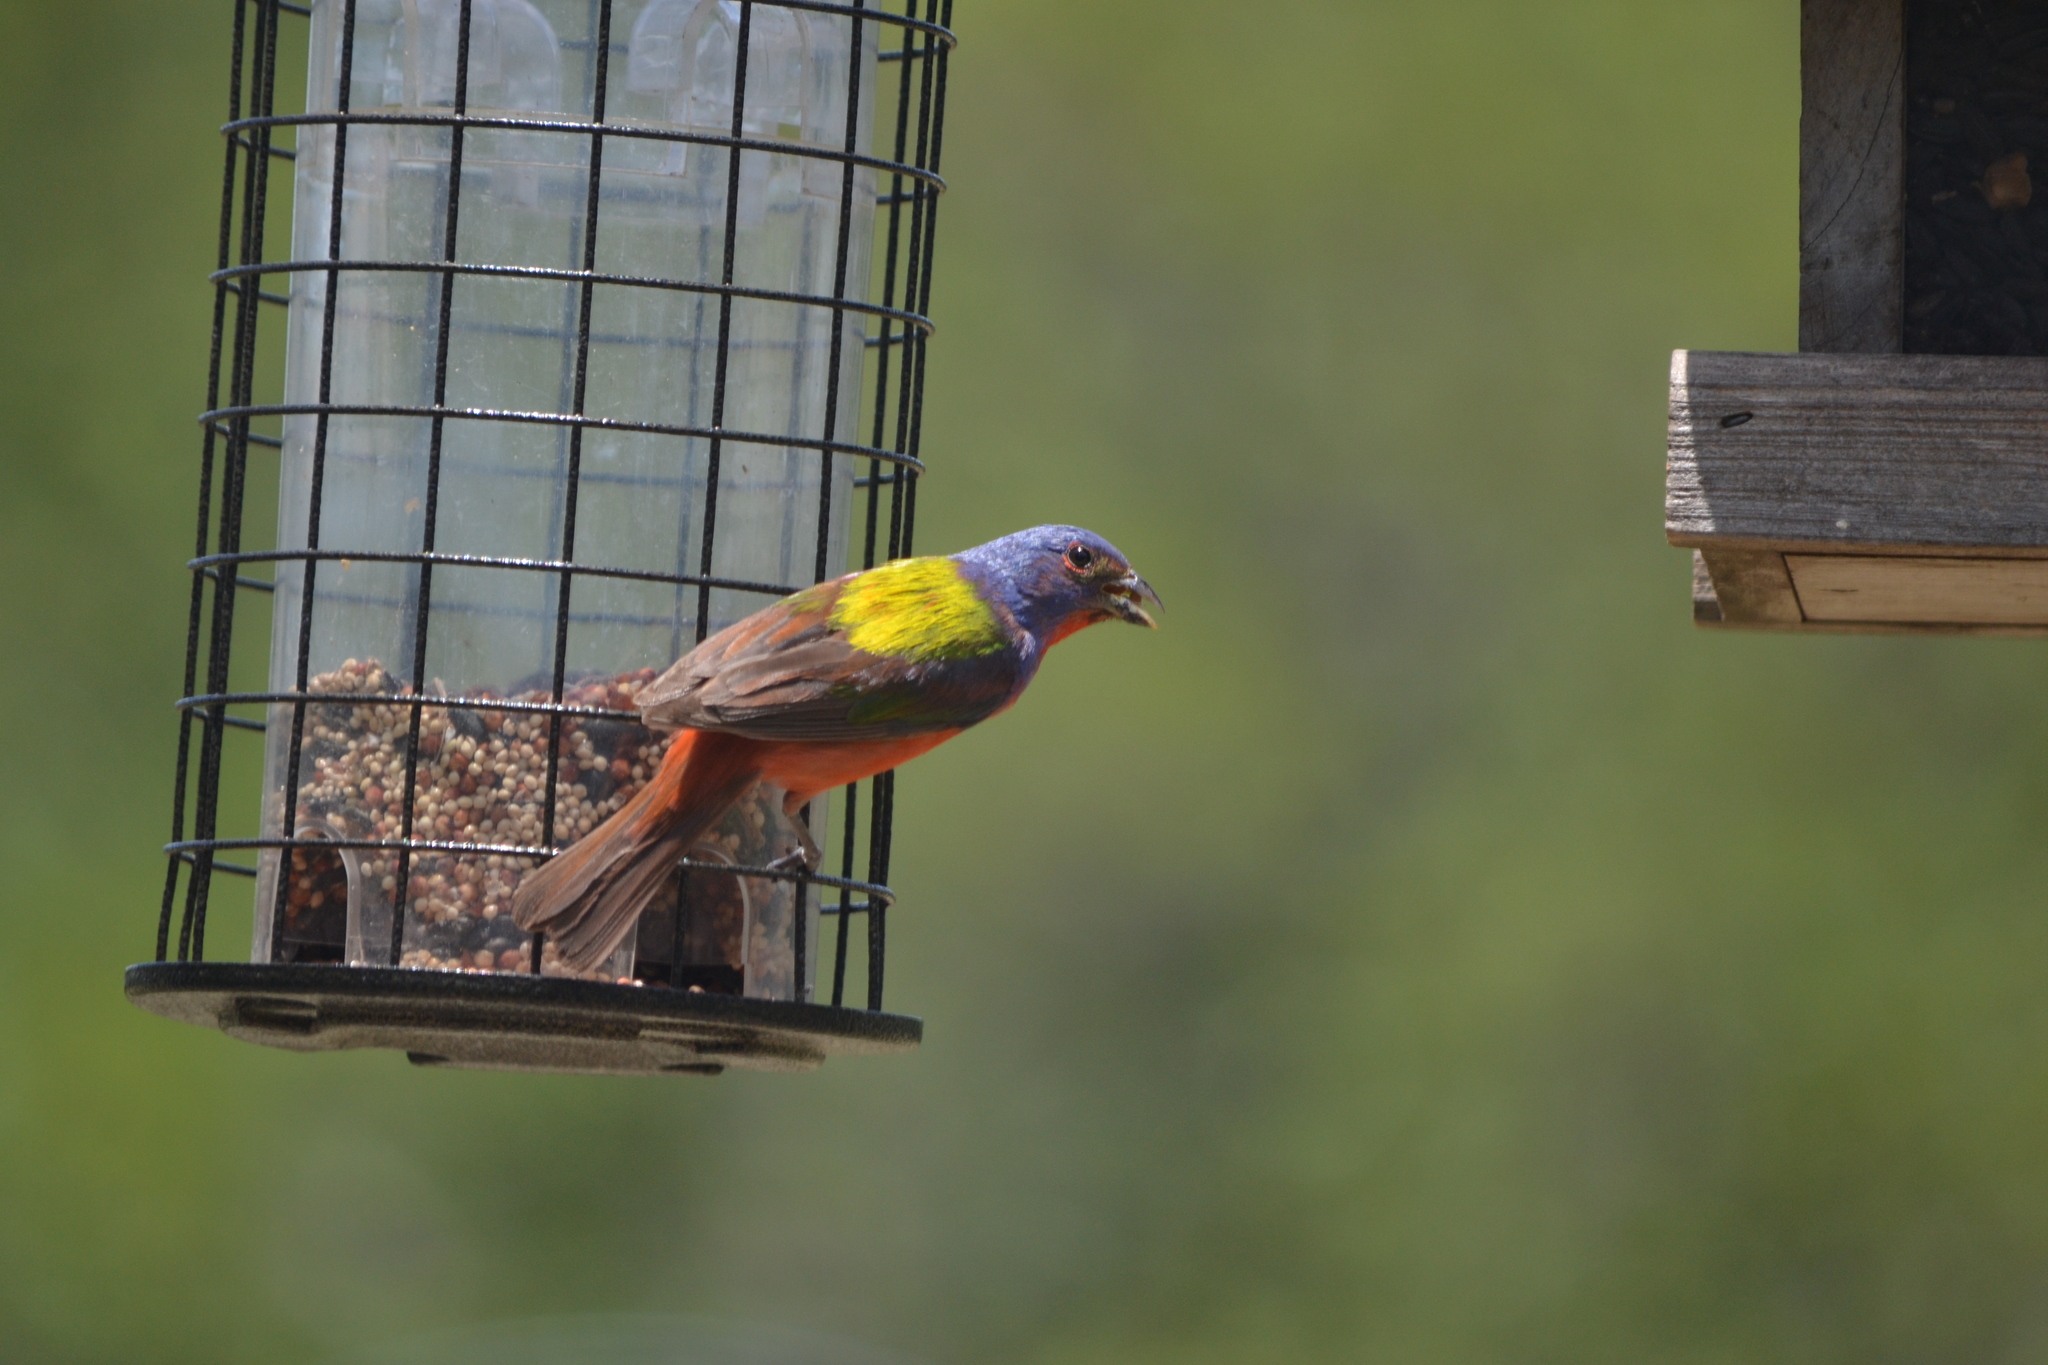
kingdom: Animalia
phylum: Chordata
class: Aves
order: Passeriformes
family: Cardinalidae
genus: Passerina
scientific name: Passerina ciris
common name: Painted bunting
